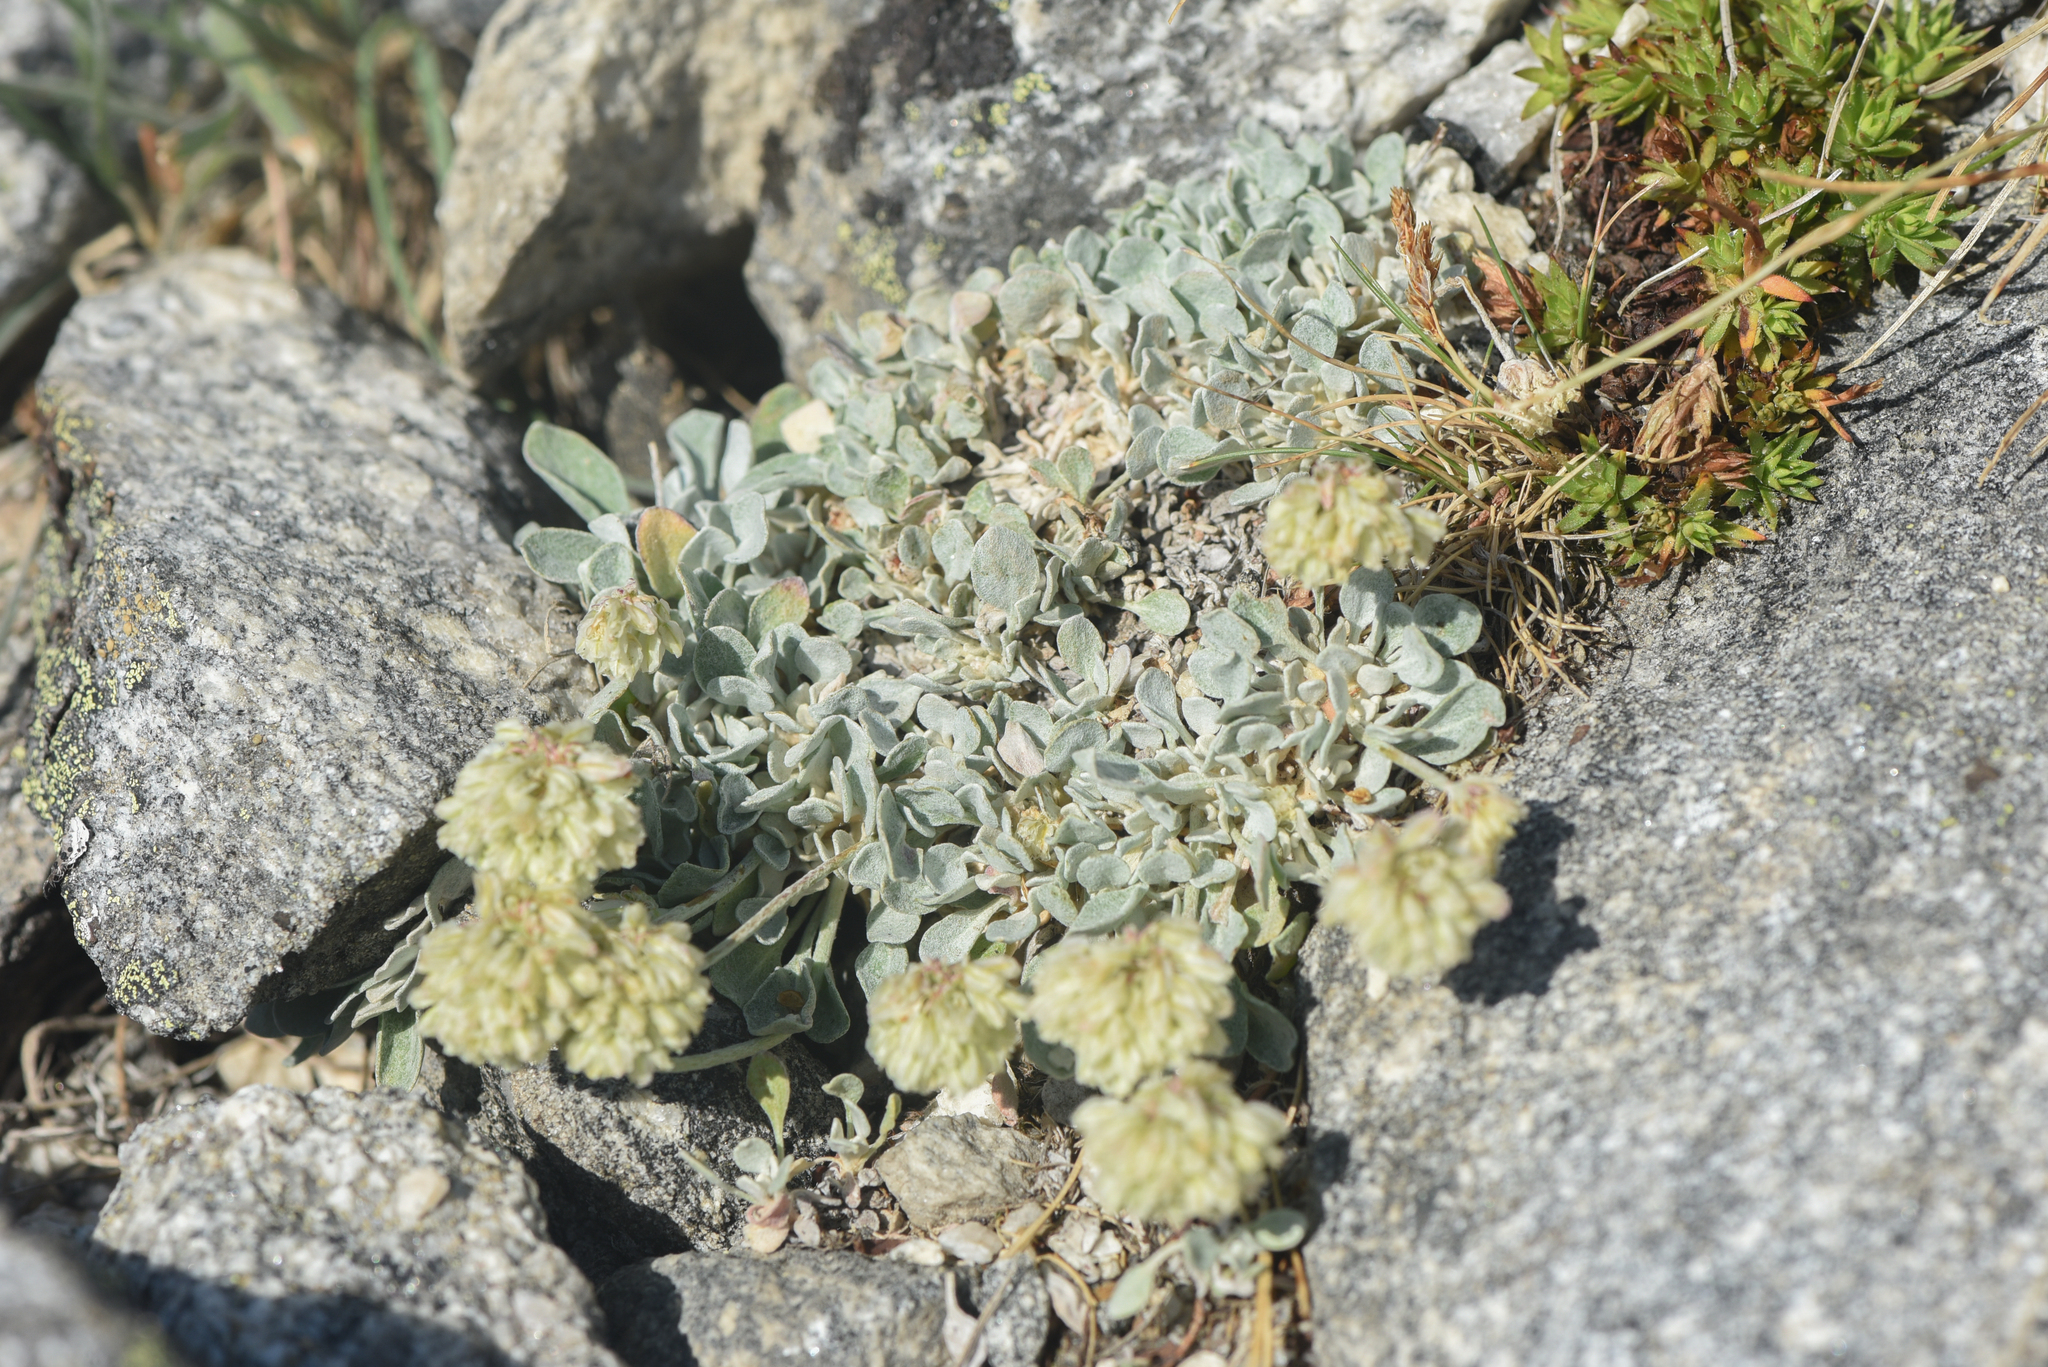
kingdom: Plantae
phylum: Tracheophyta
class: Magnoliopsida
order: Caryophyllales
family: Polygonaceae
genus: Eriogonum
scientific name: Eriogonum ovalifolium
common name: Cushion buckwheat
